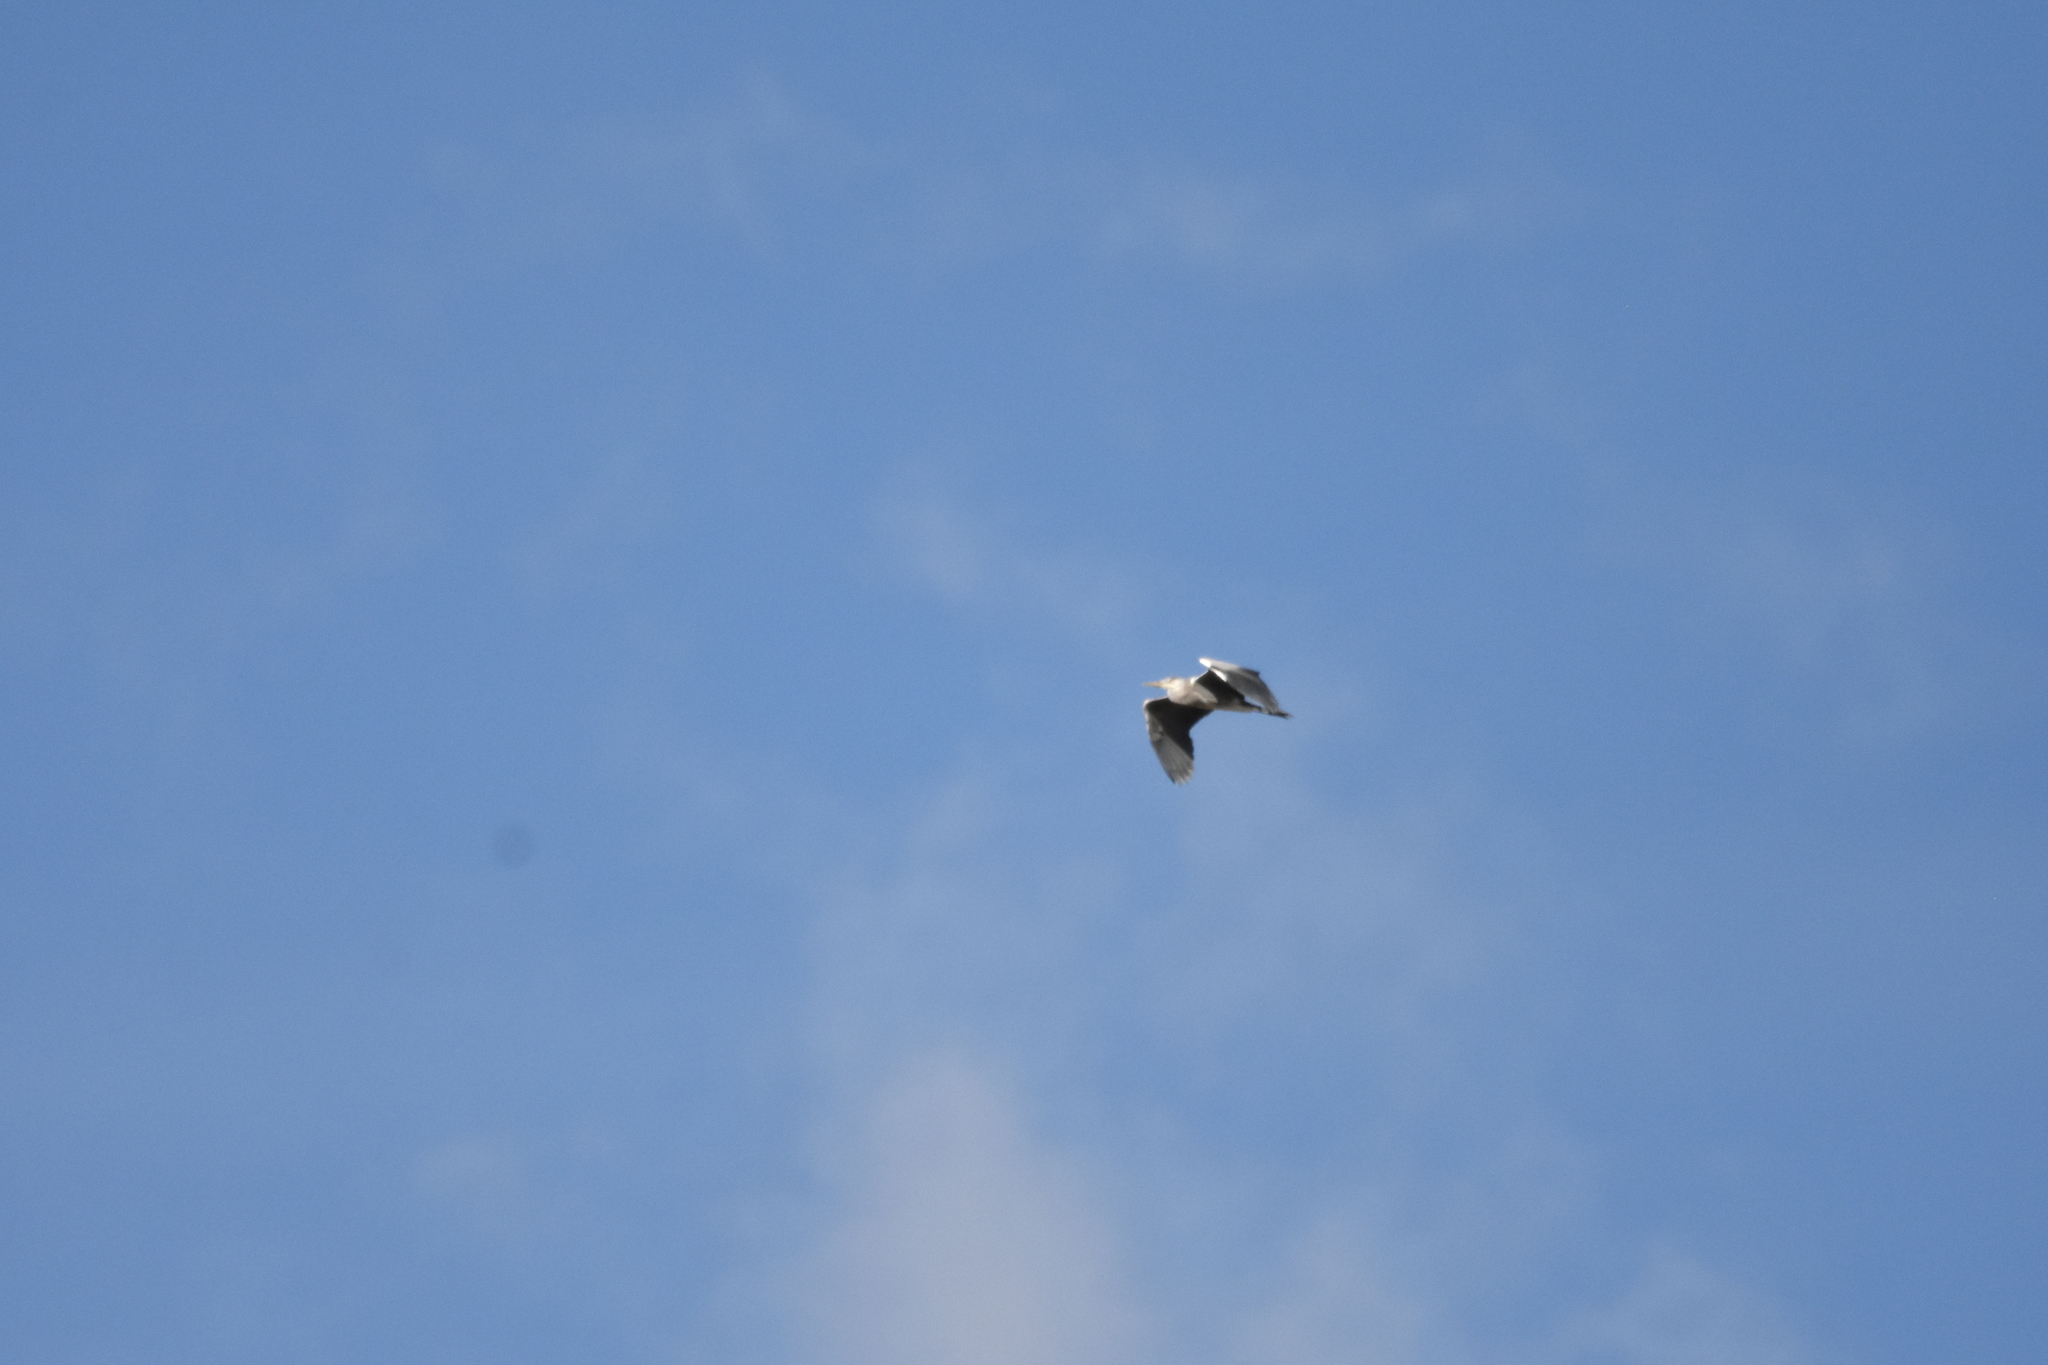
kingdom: Animalia
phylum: Chordata
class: Aves
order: Pelecaniformes
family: Ardeidae
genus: Ardea
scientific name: Ardea cinerea
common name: Grey heron
